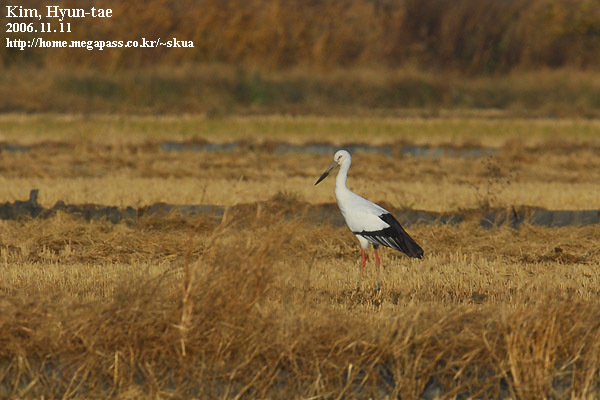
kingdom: Animalia
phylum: Chordata
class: Aves
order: Ciconiiformes
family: Ciconiidae
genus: Ciconia
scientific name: Ciconia boyciana
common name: Oriental stork
